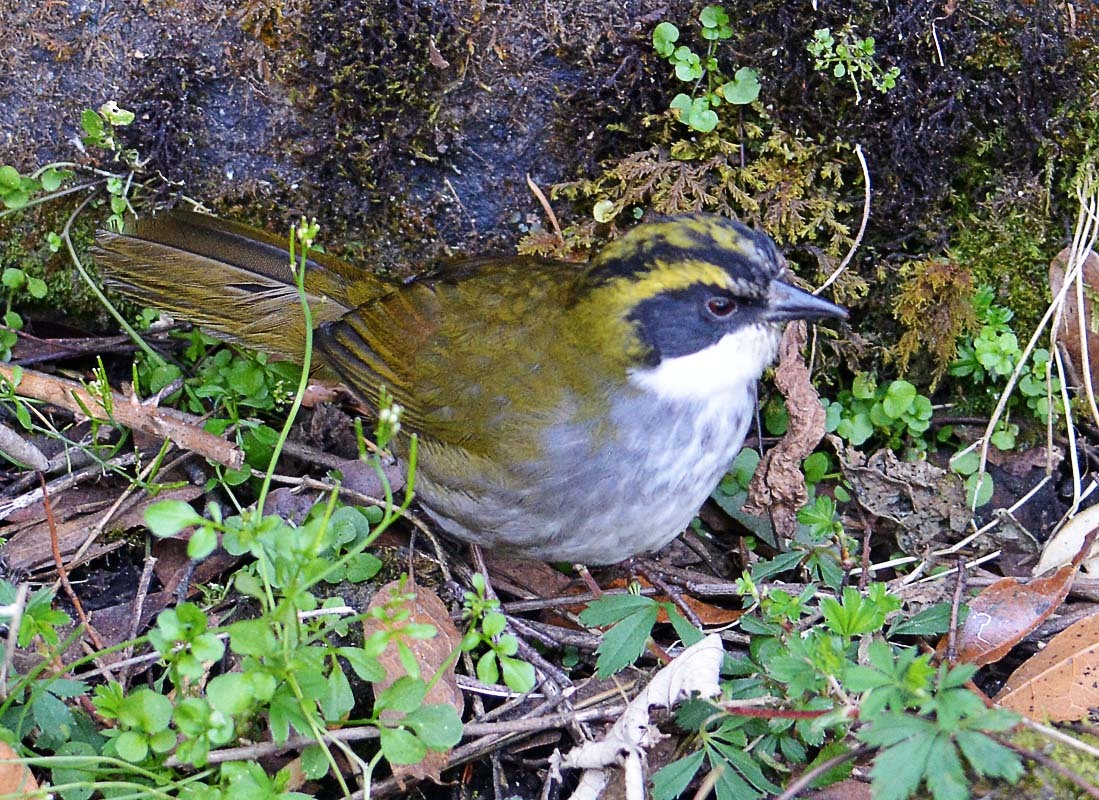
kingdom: Animalia
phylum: Chordata
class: Aves
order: Passeriformes
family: Passerellidae
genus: Arremon
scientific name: Arremon virenticeps
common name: Green-striped brushfinch
